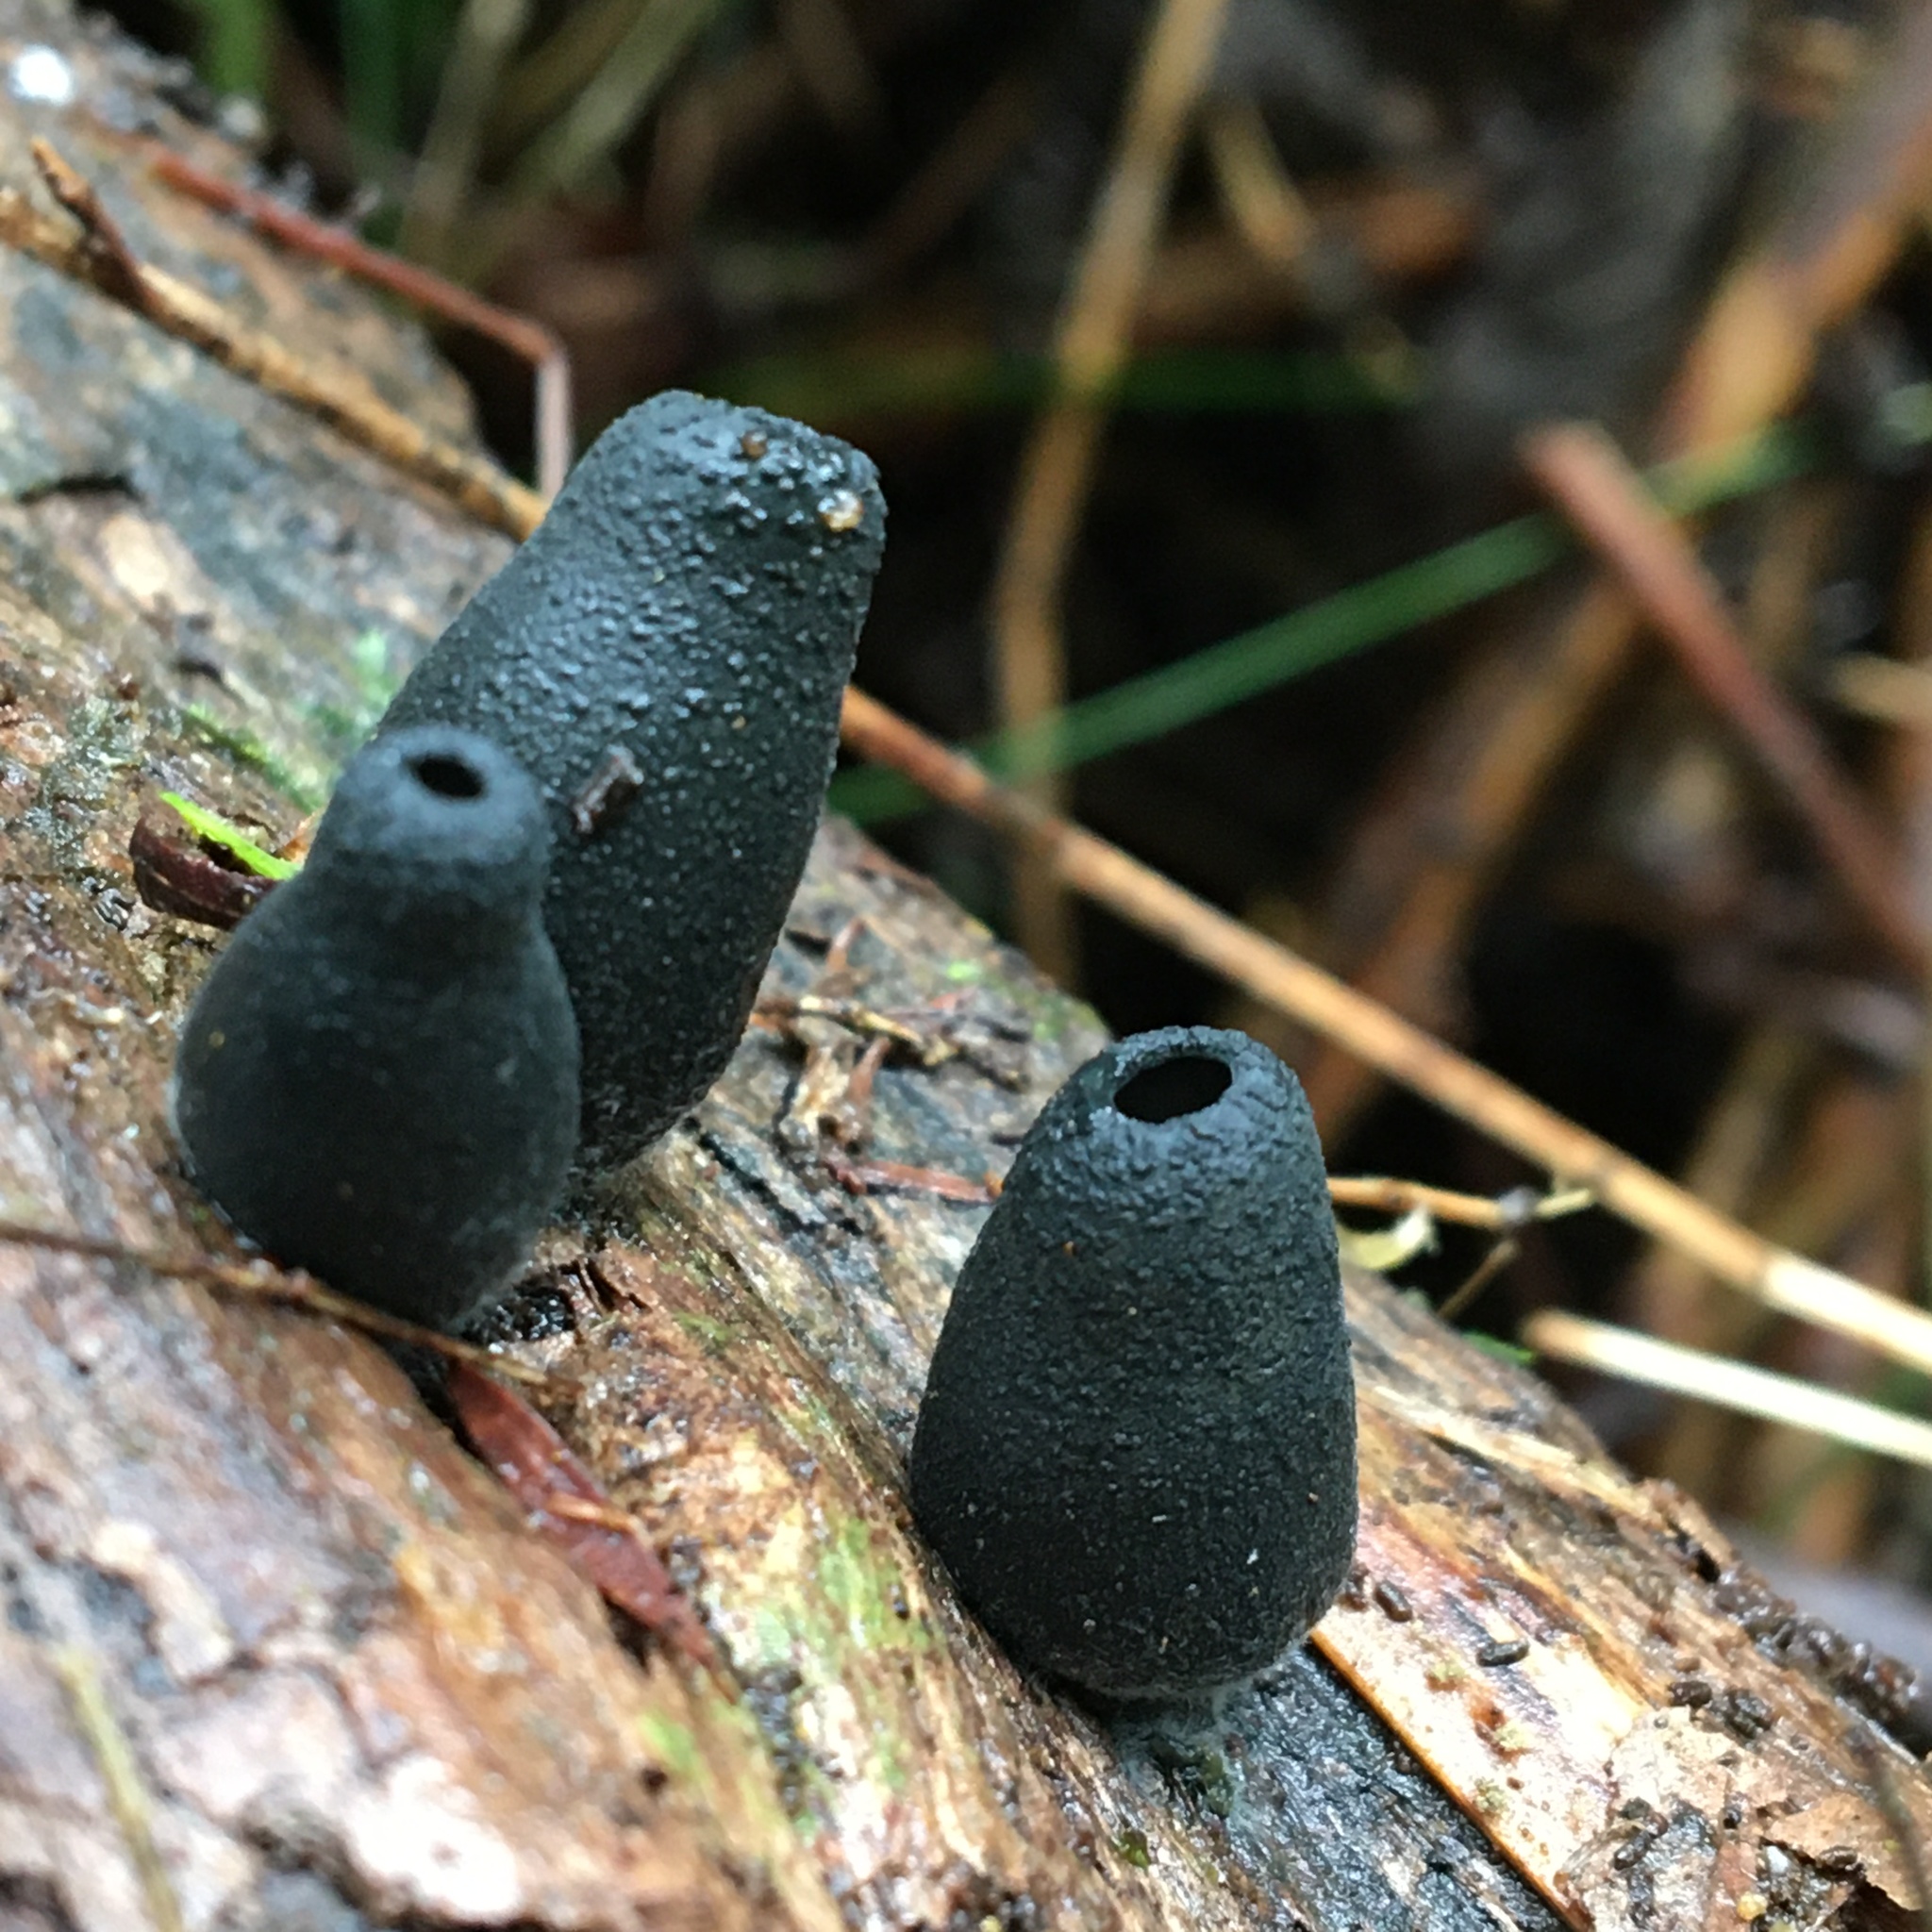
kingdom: Fungi
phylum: Ascomycota
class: Pezizomycetes
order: Pezizales
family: Sarcosomataceae
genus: Plectania
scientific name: Plectania campylospora
